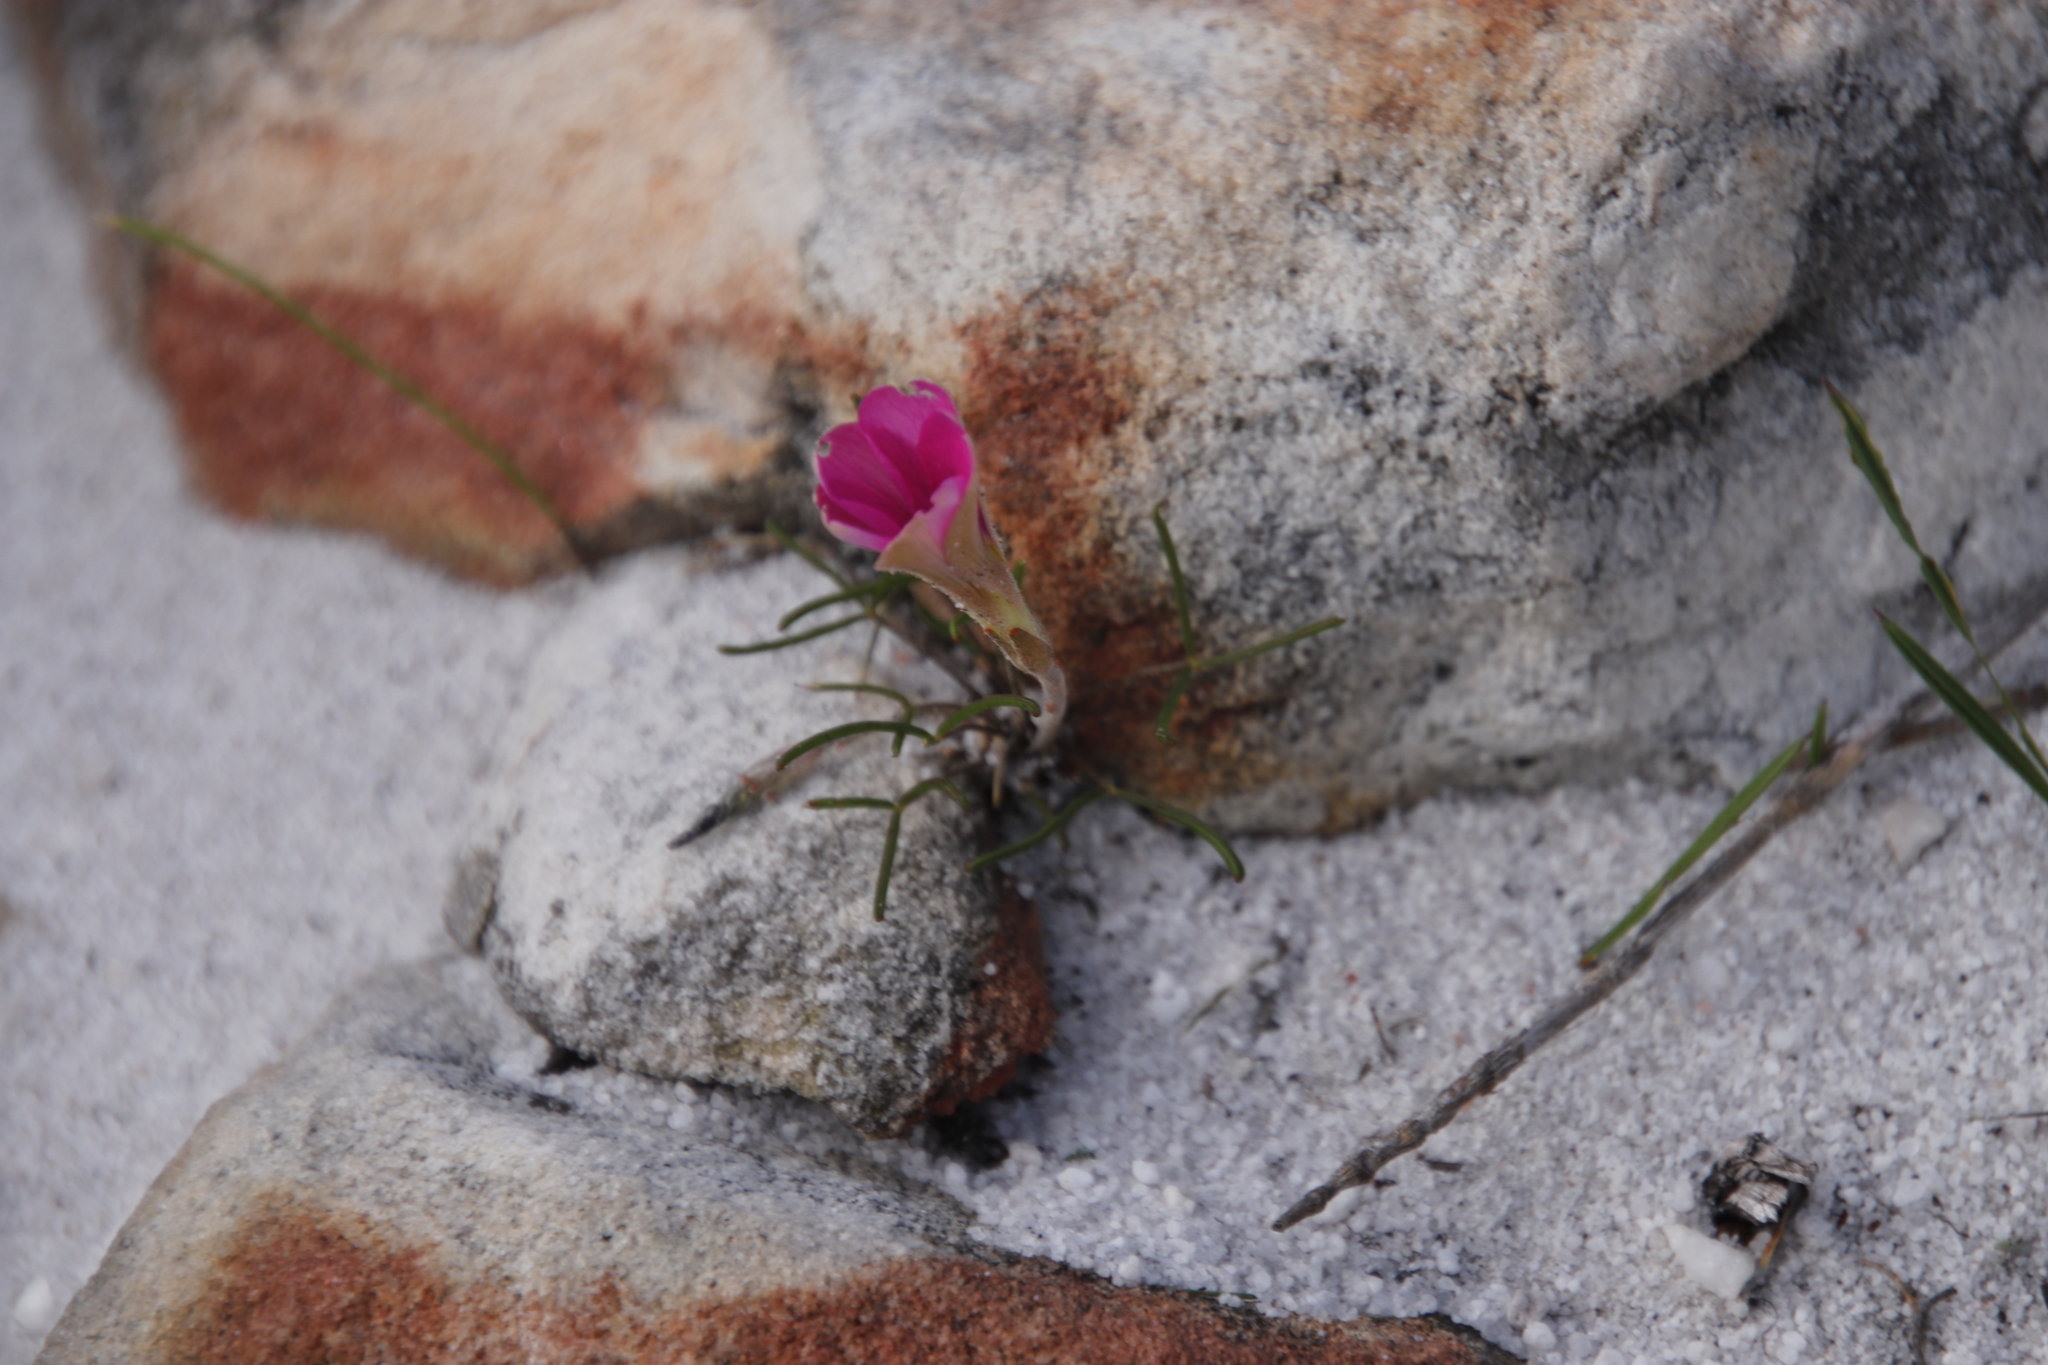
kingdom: Plantae
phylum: Tracheophyta
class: Magnoliopsida
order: Oxalidales
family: Oxalidaceae
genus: Oxalis
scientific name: Oxalis polyphylla
